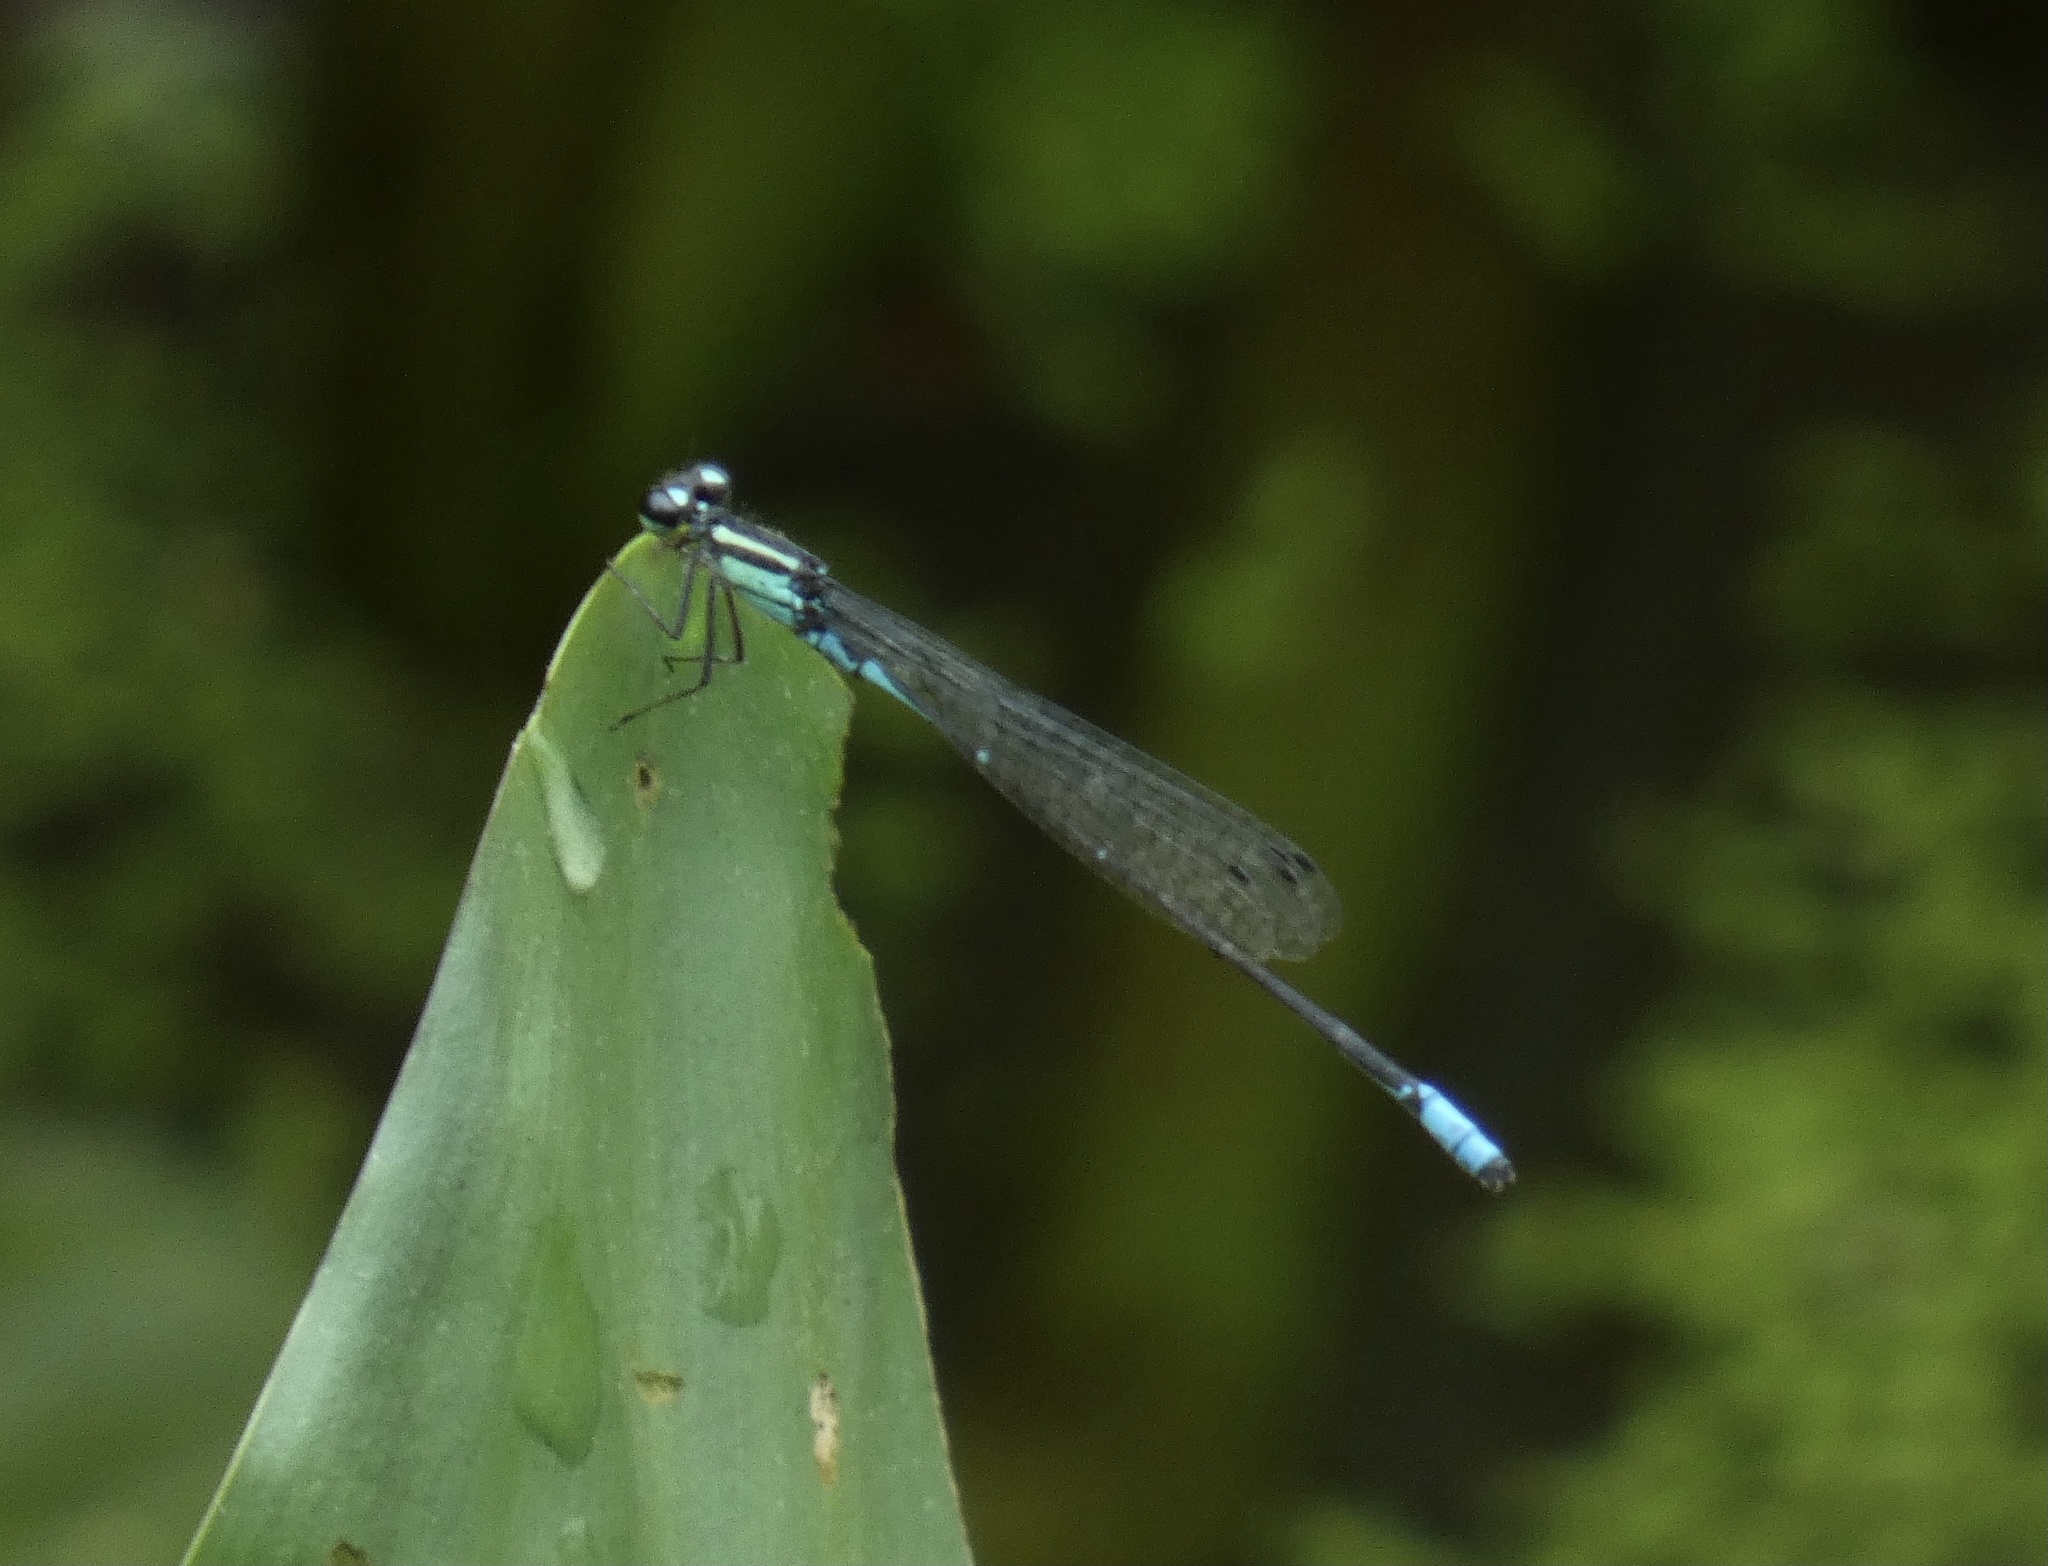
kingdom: Animalia
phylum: Arthropoda
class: Insecta
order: Odonata
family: Coenagrionidae
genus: Acanthagrion
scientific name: Acanthagrion lancea
